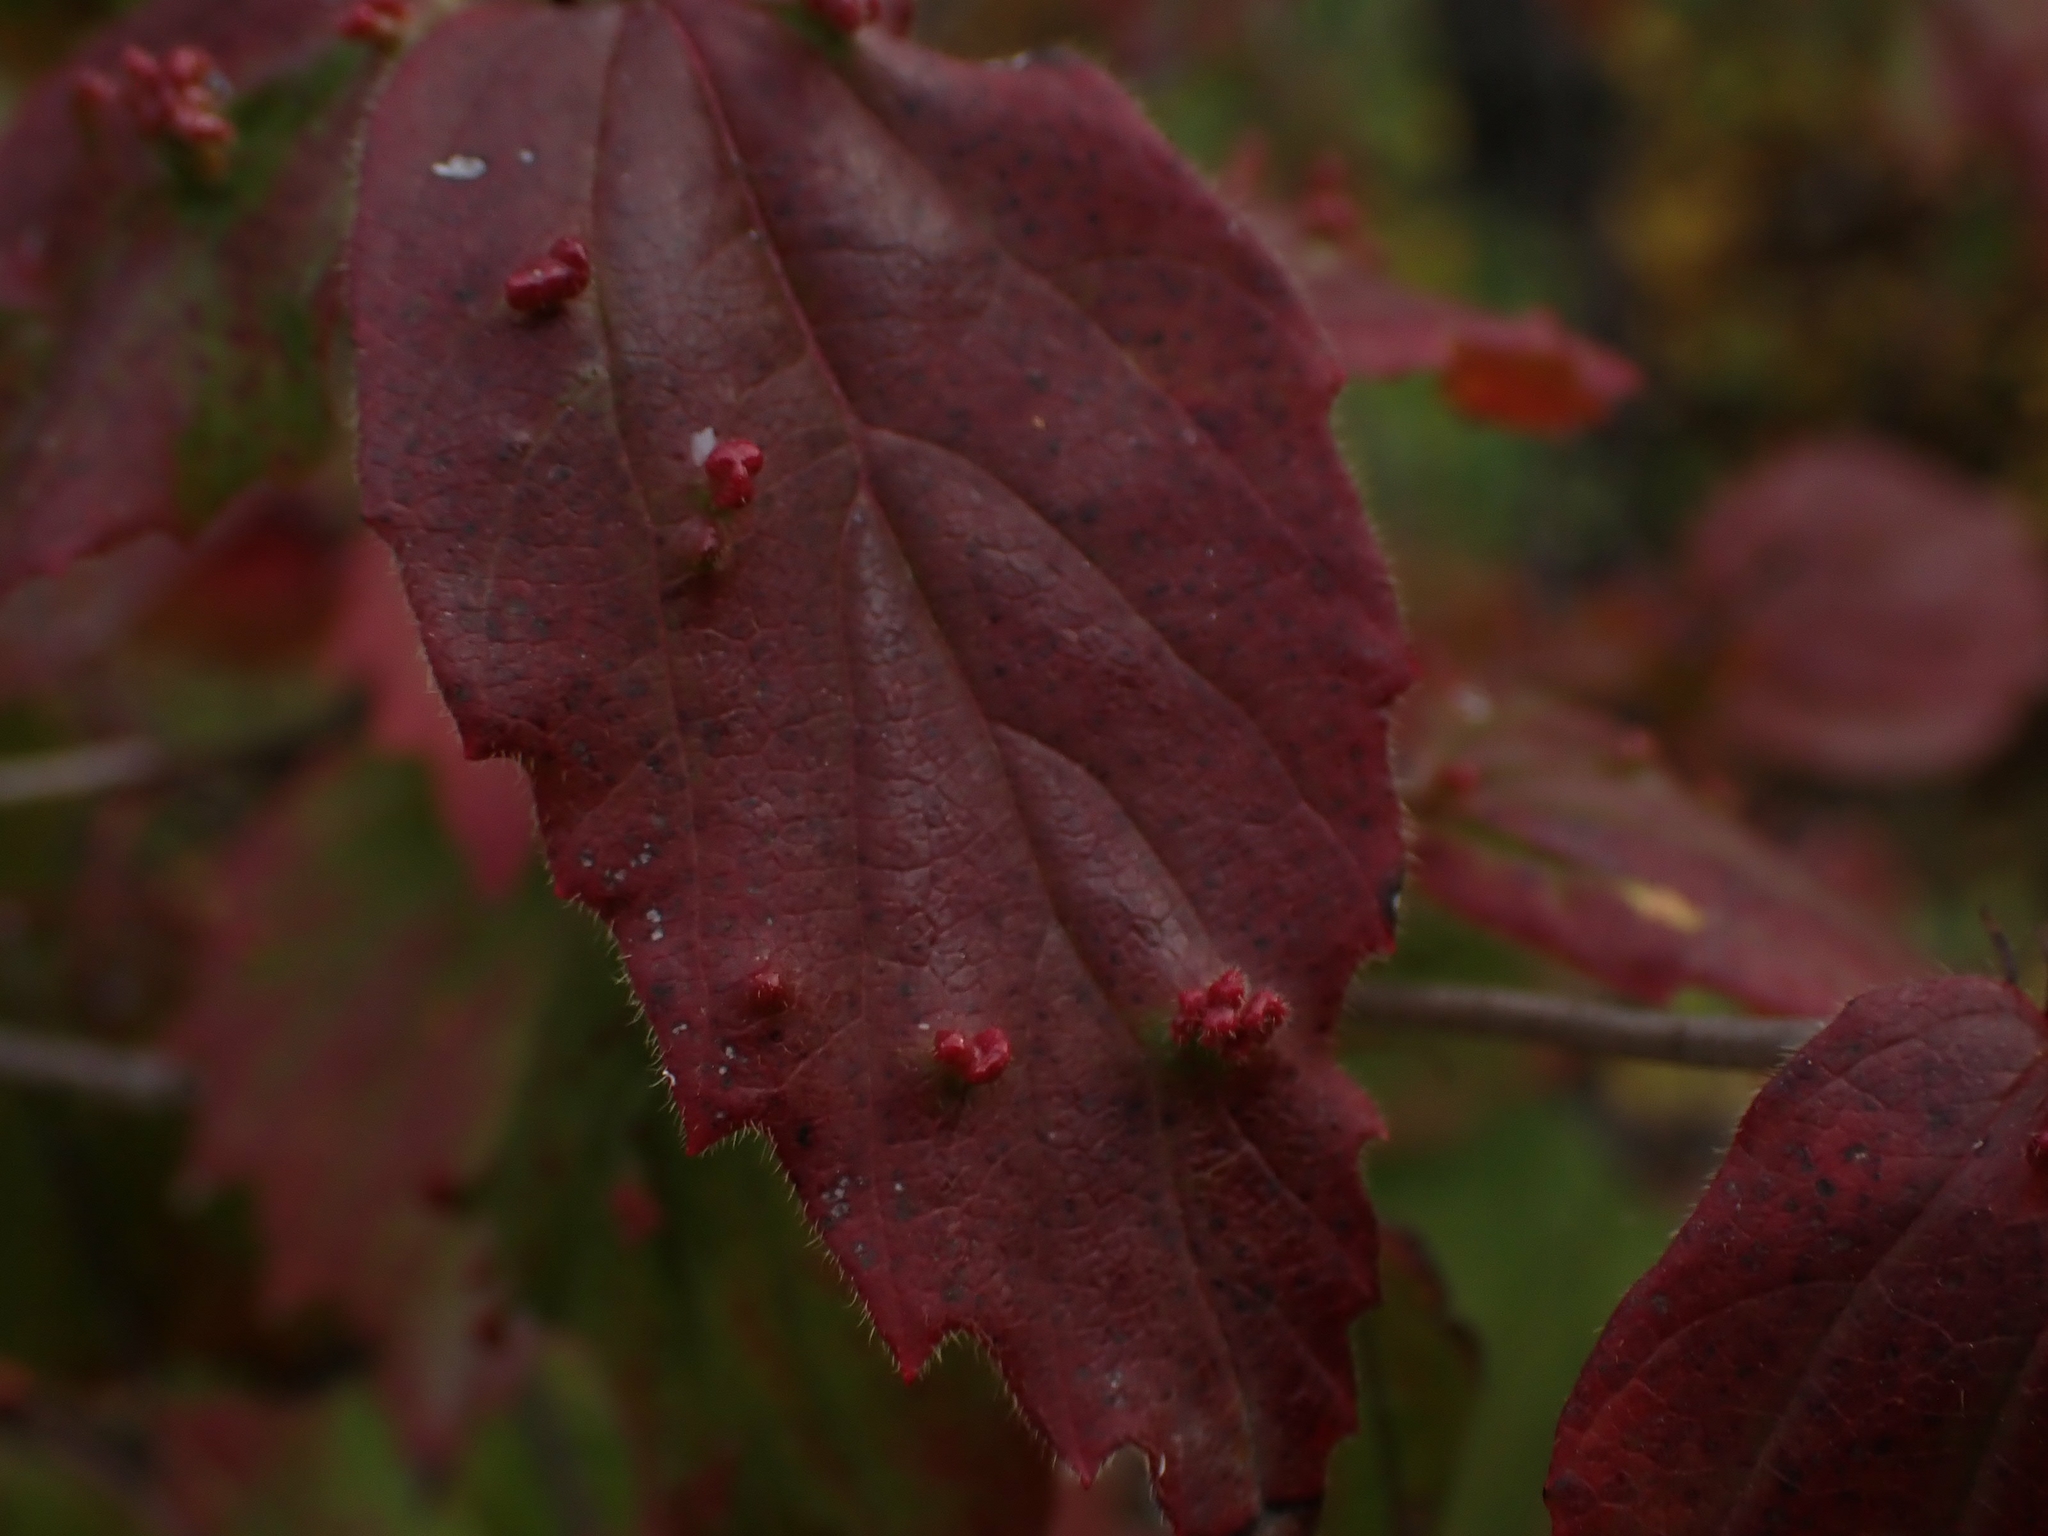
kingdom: Animalia
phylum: Arthropoda
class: Arachnida
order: Trombidiformes
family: Eriophyidae
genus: Eriophyes
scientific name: Eriophyes
